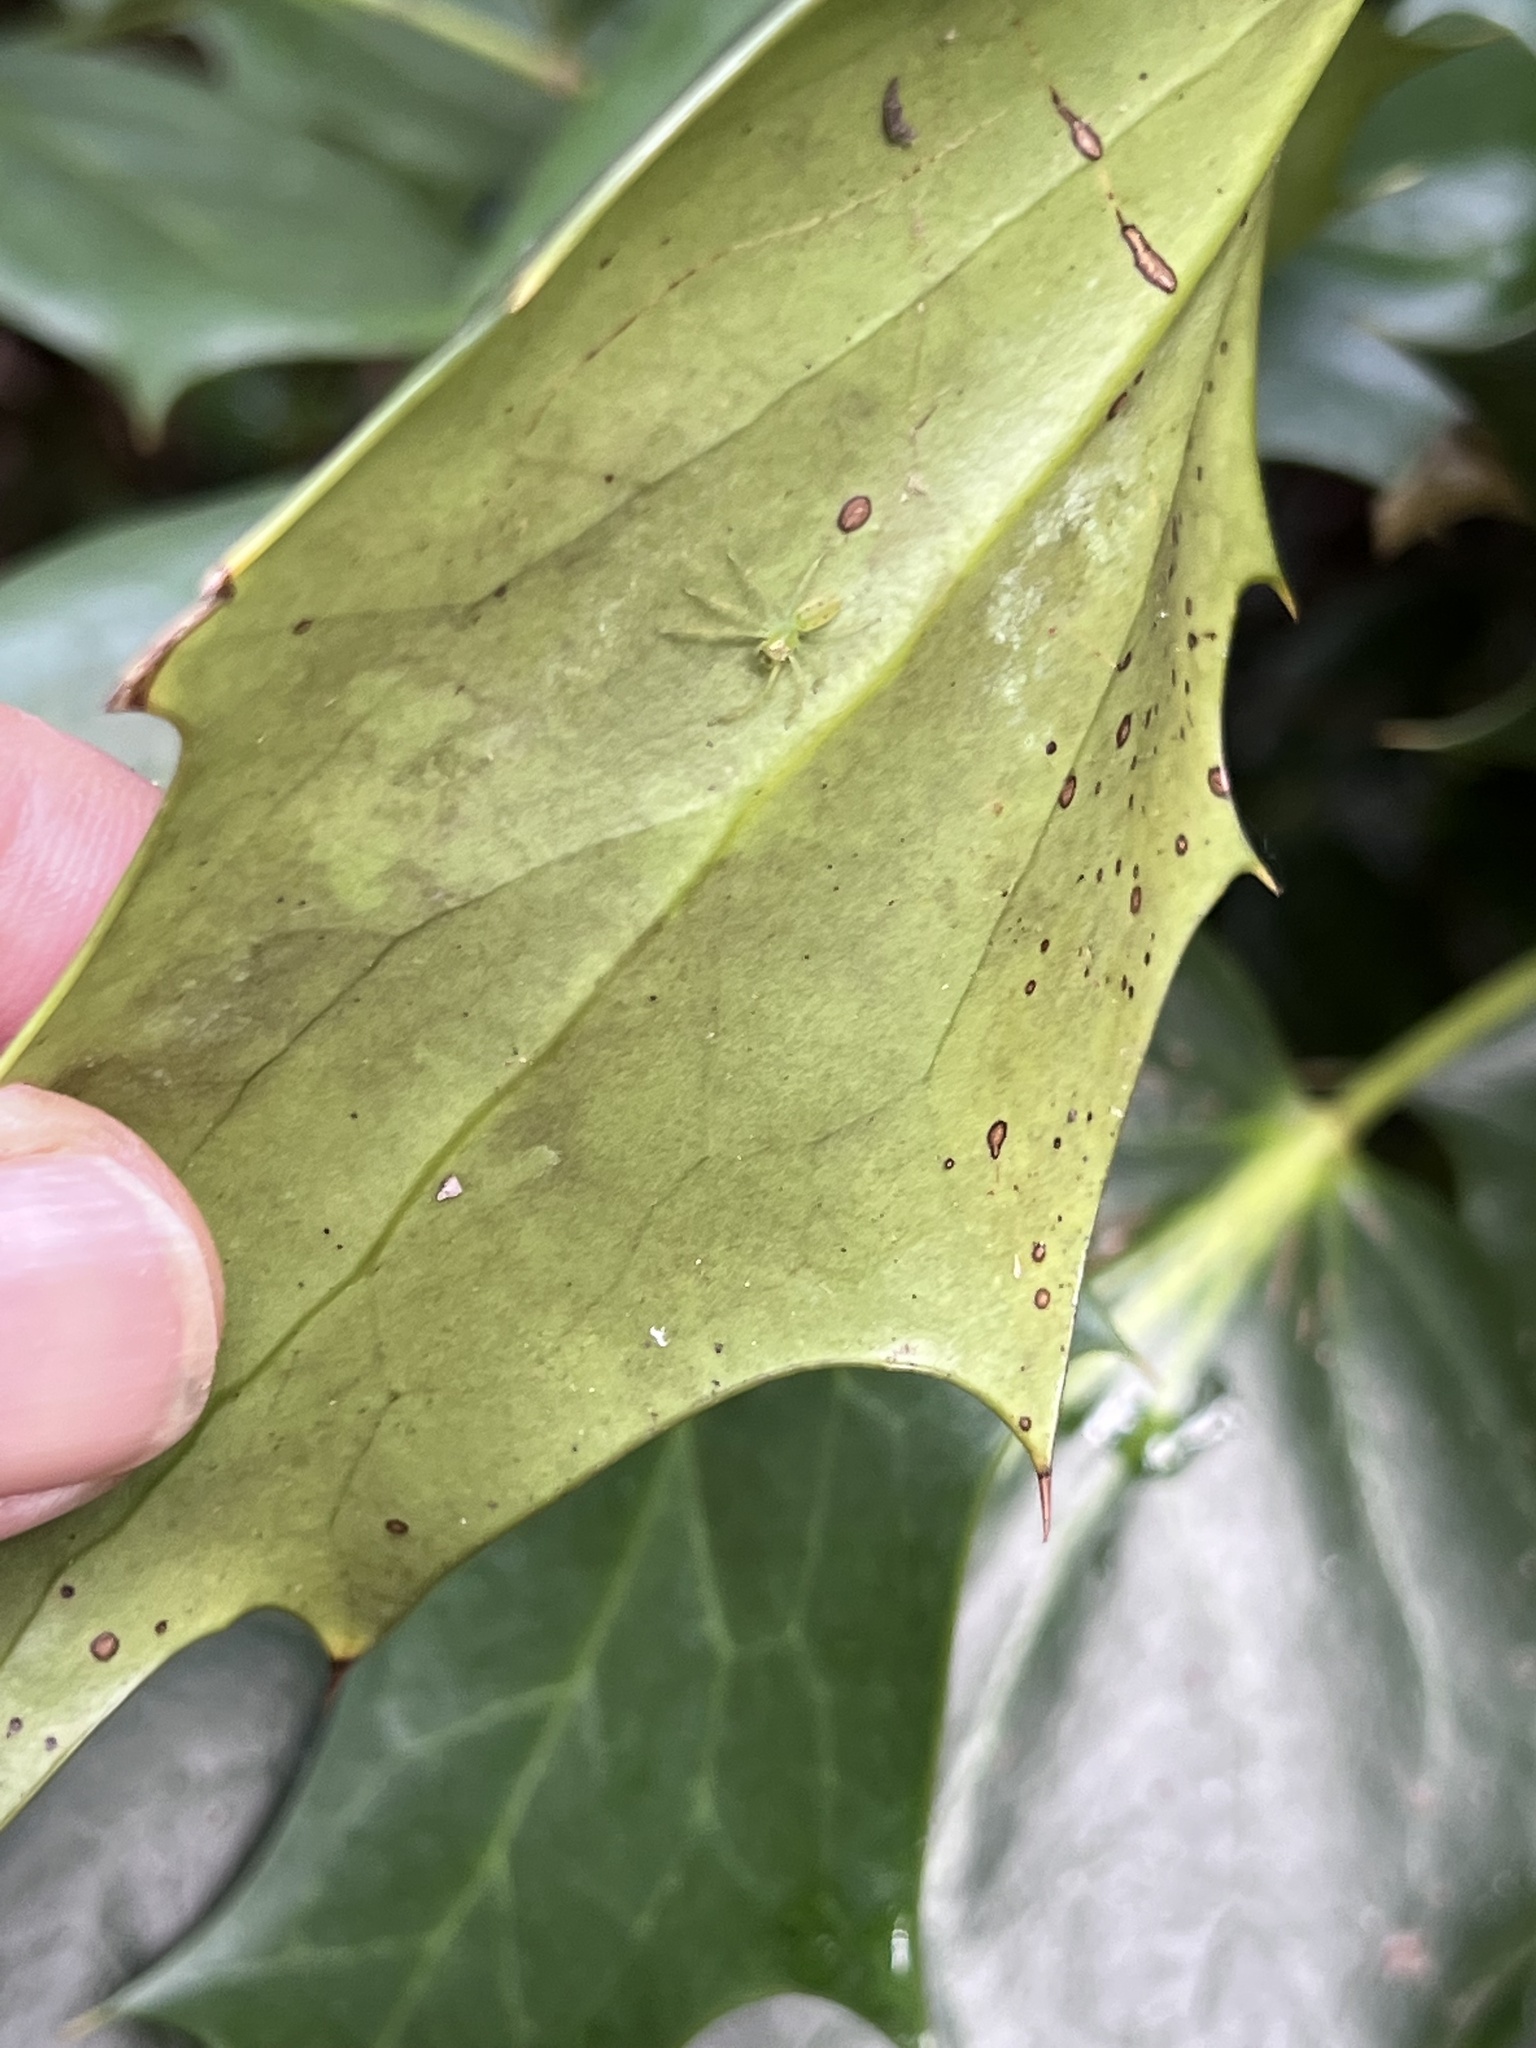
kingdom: Animalia
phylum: Arthropoda
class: Arachnida
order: Araneae
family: Salticidae
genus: Lyssomanes
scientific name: Lyssomanes viridis
